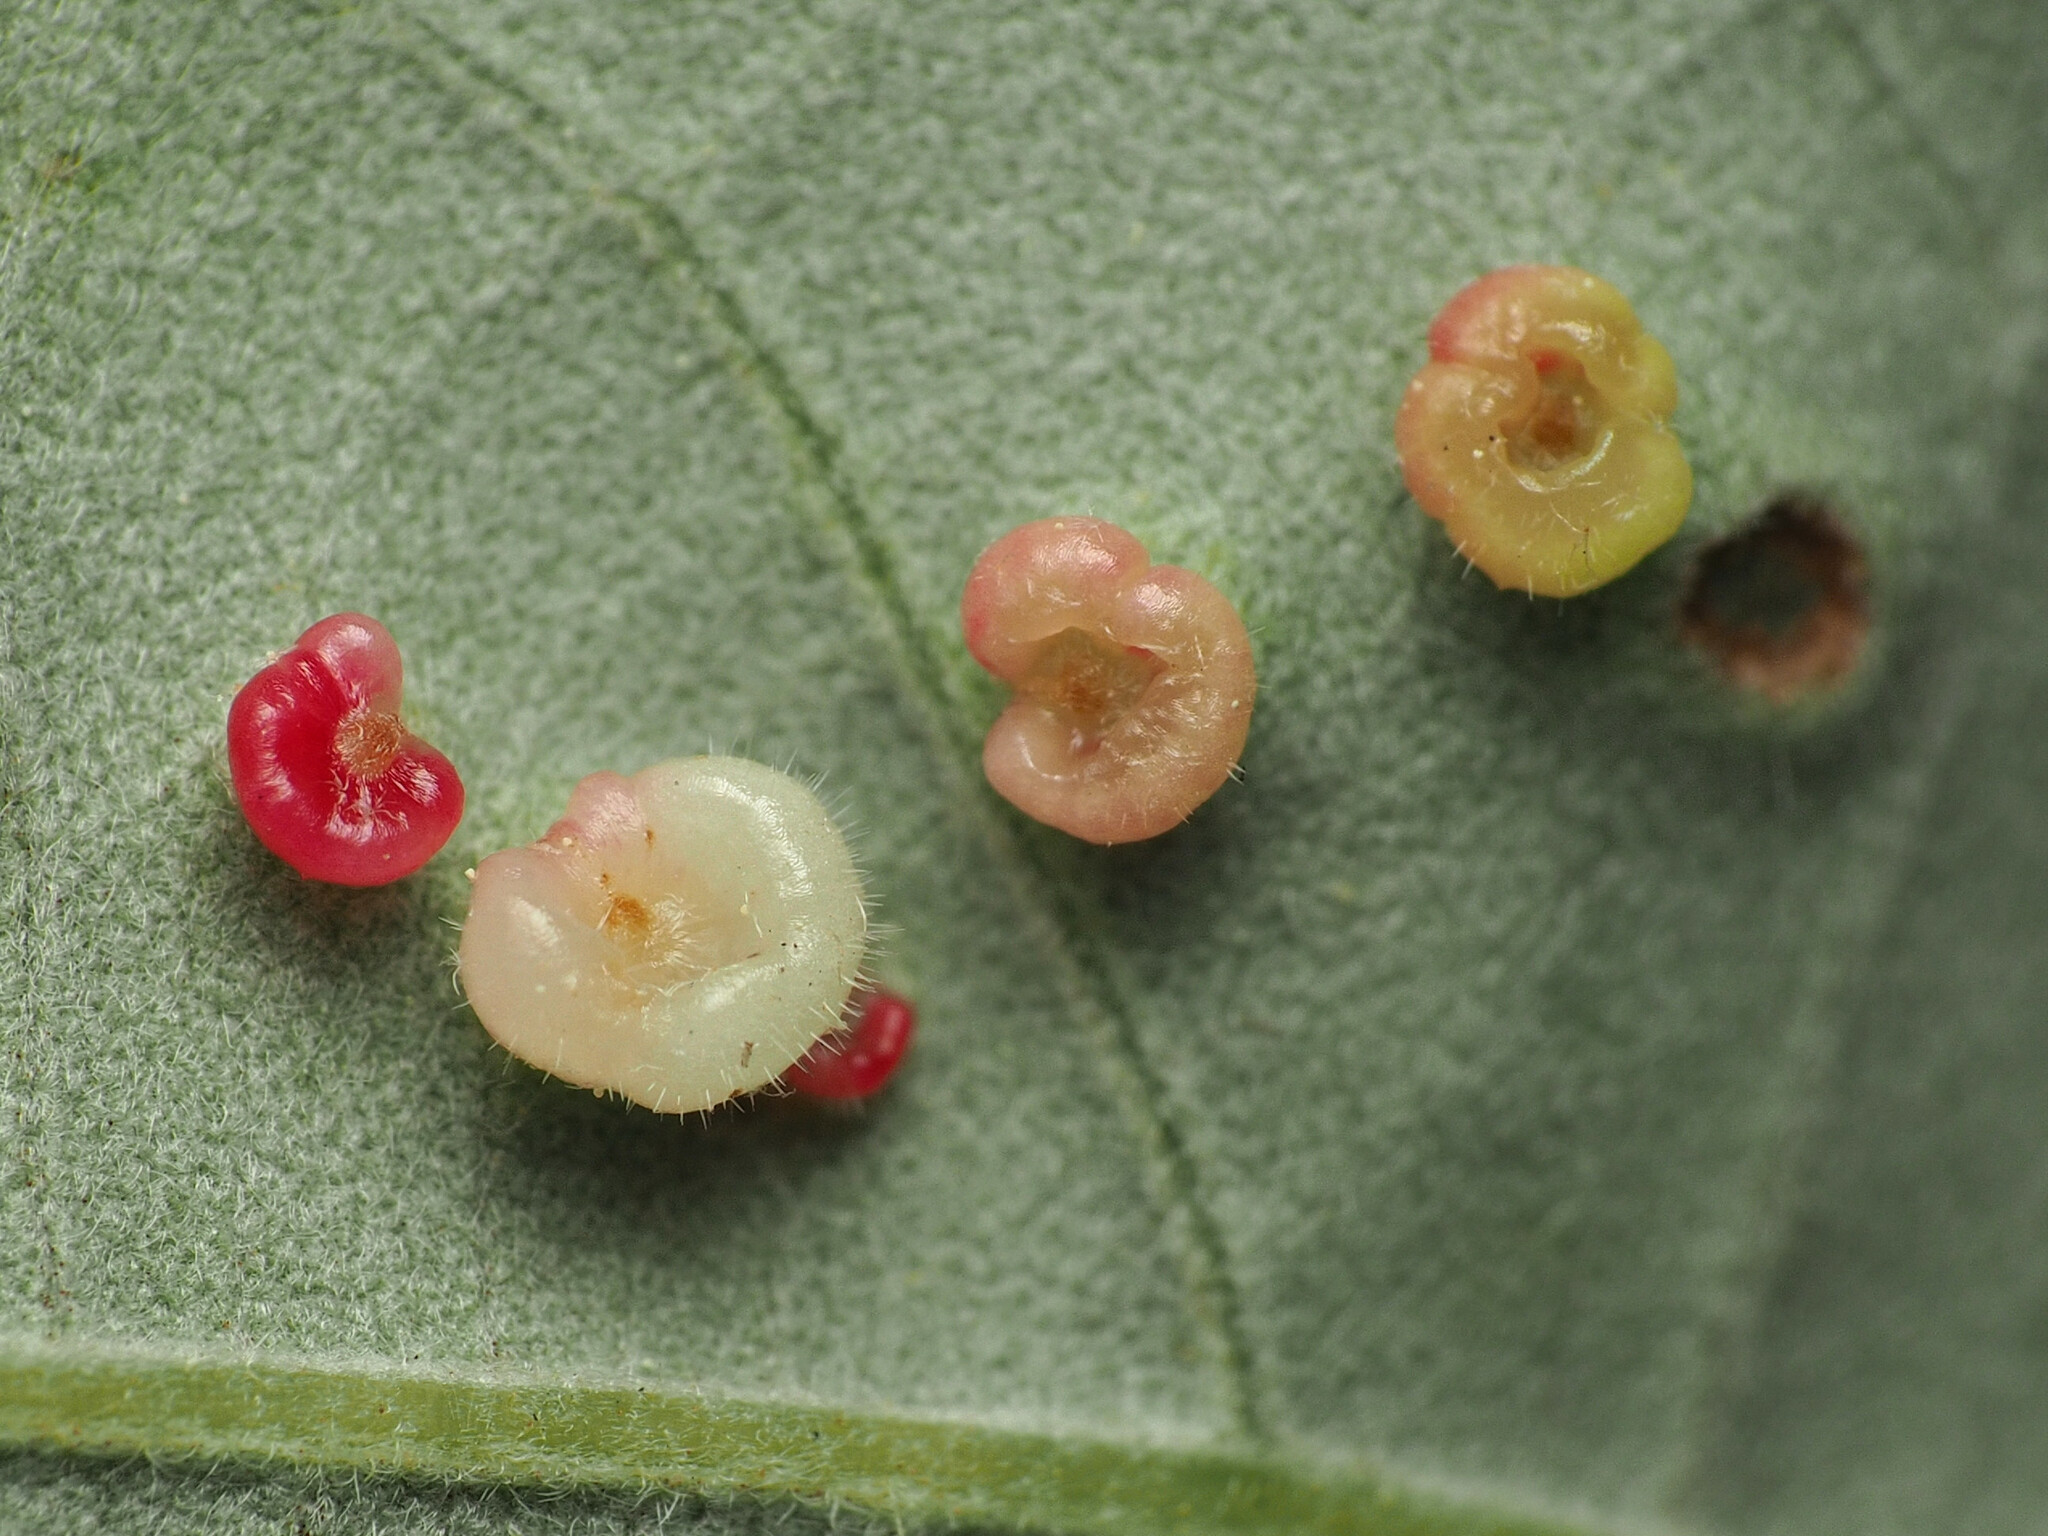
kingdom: Animalia
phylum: Arthropoda
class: Insecta
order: Hymenoptera
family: Cynipidae
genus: Neuroterus
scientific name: Neuroterus
